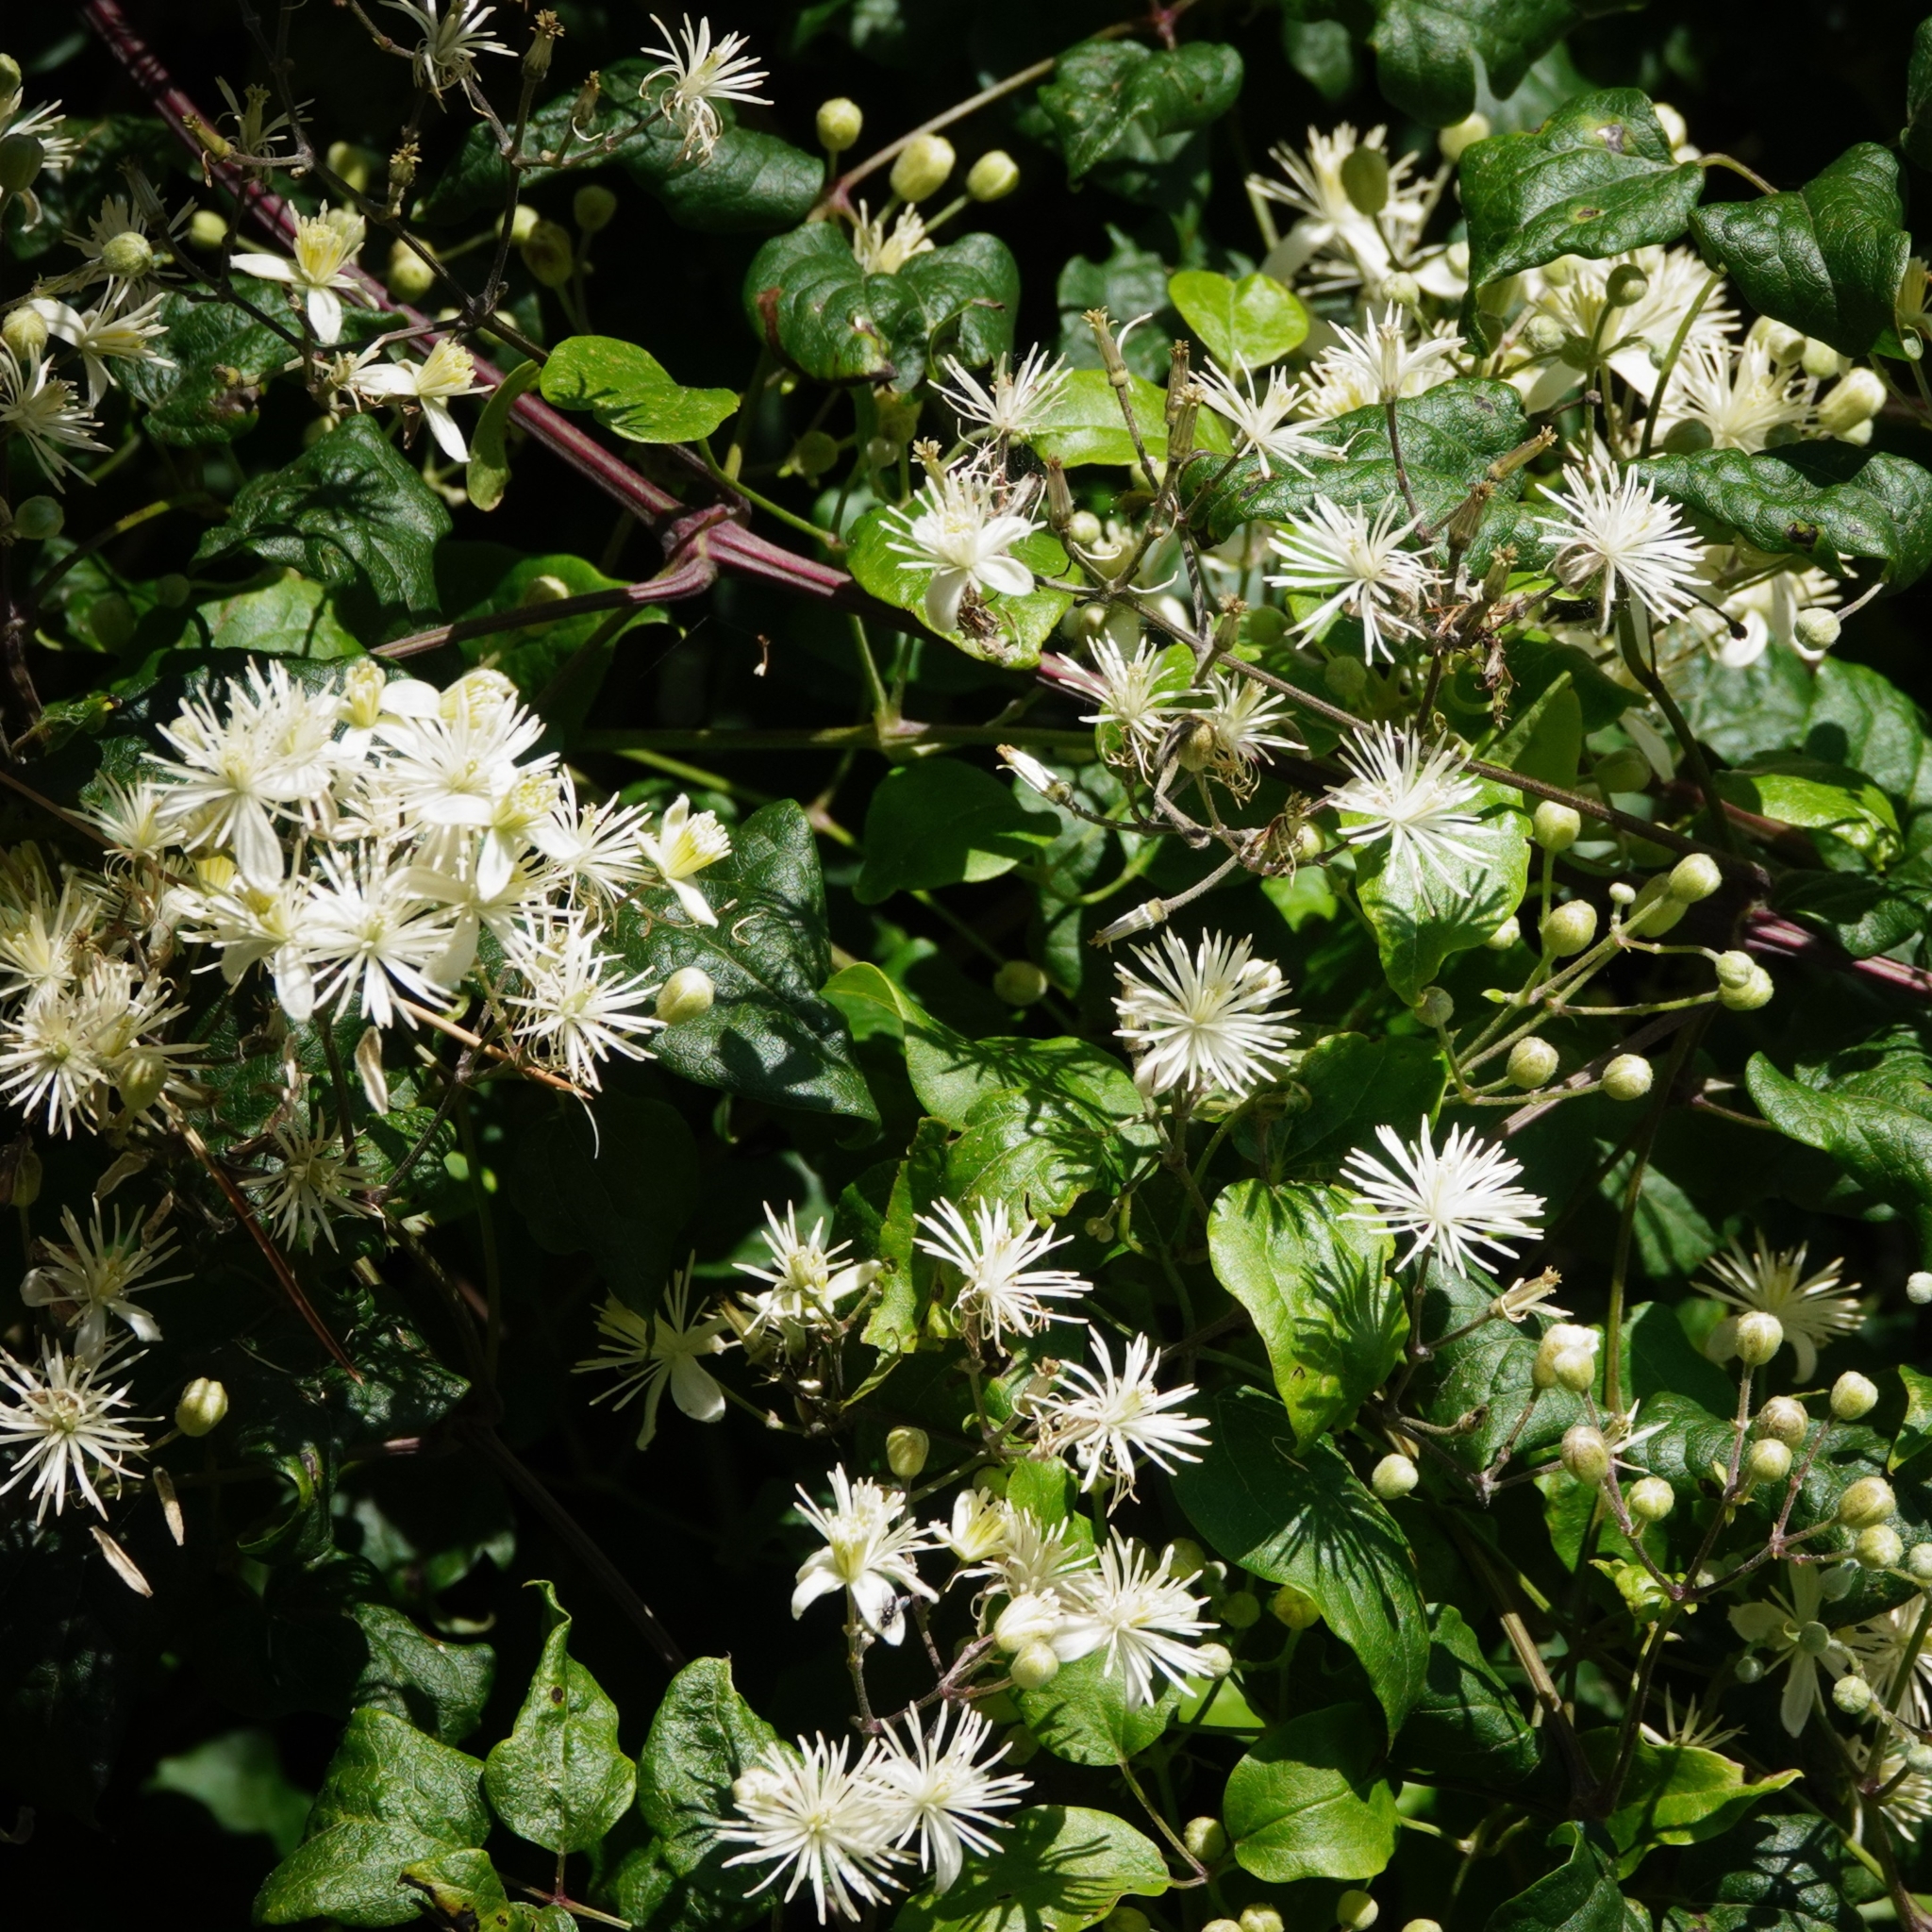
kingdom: Plantae
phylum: Tracheophyta
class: Magnoliopsida
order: Ranunculales
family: Ranunculaceae
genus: Clematis
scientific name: Clematis vitalba
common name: Evergreen clematis
